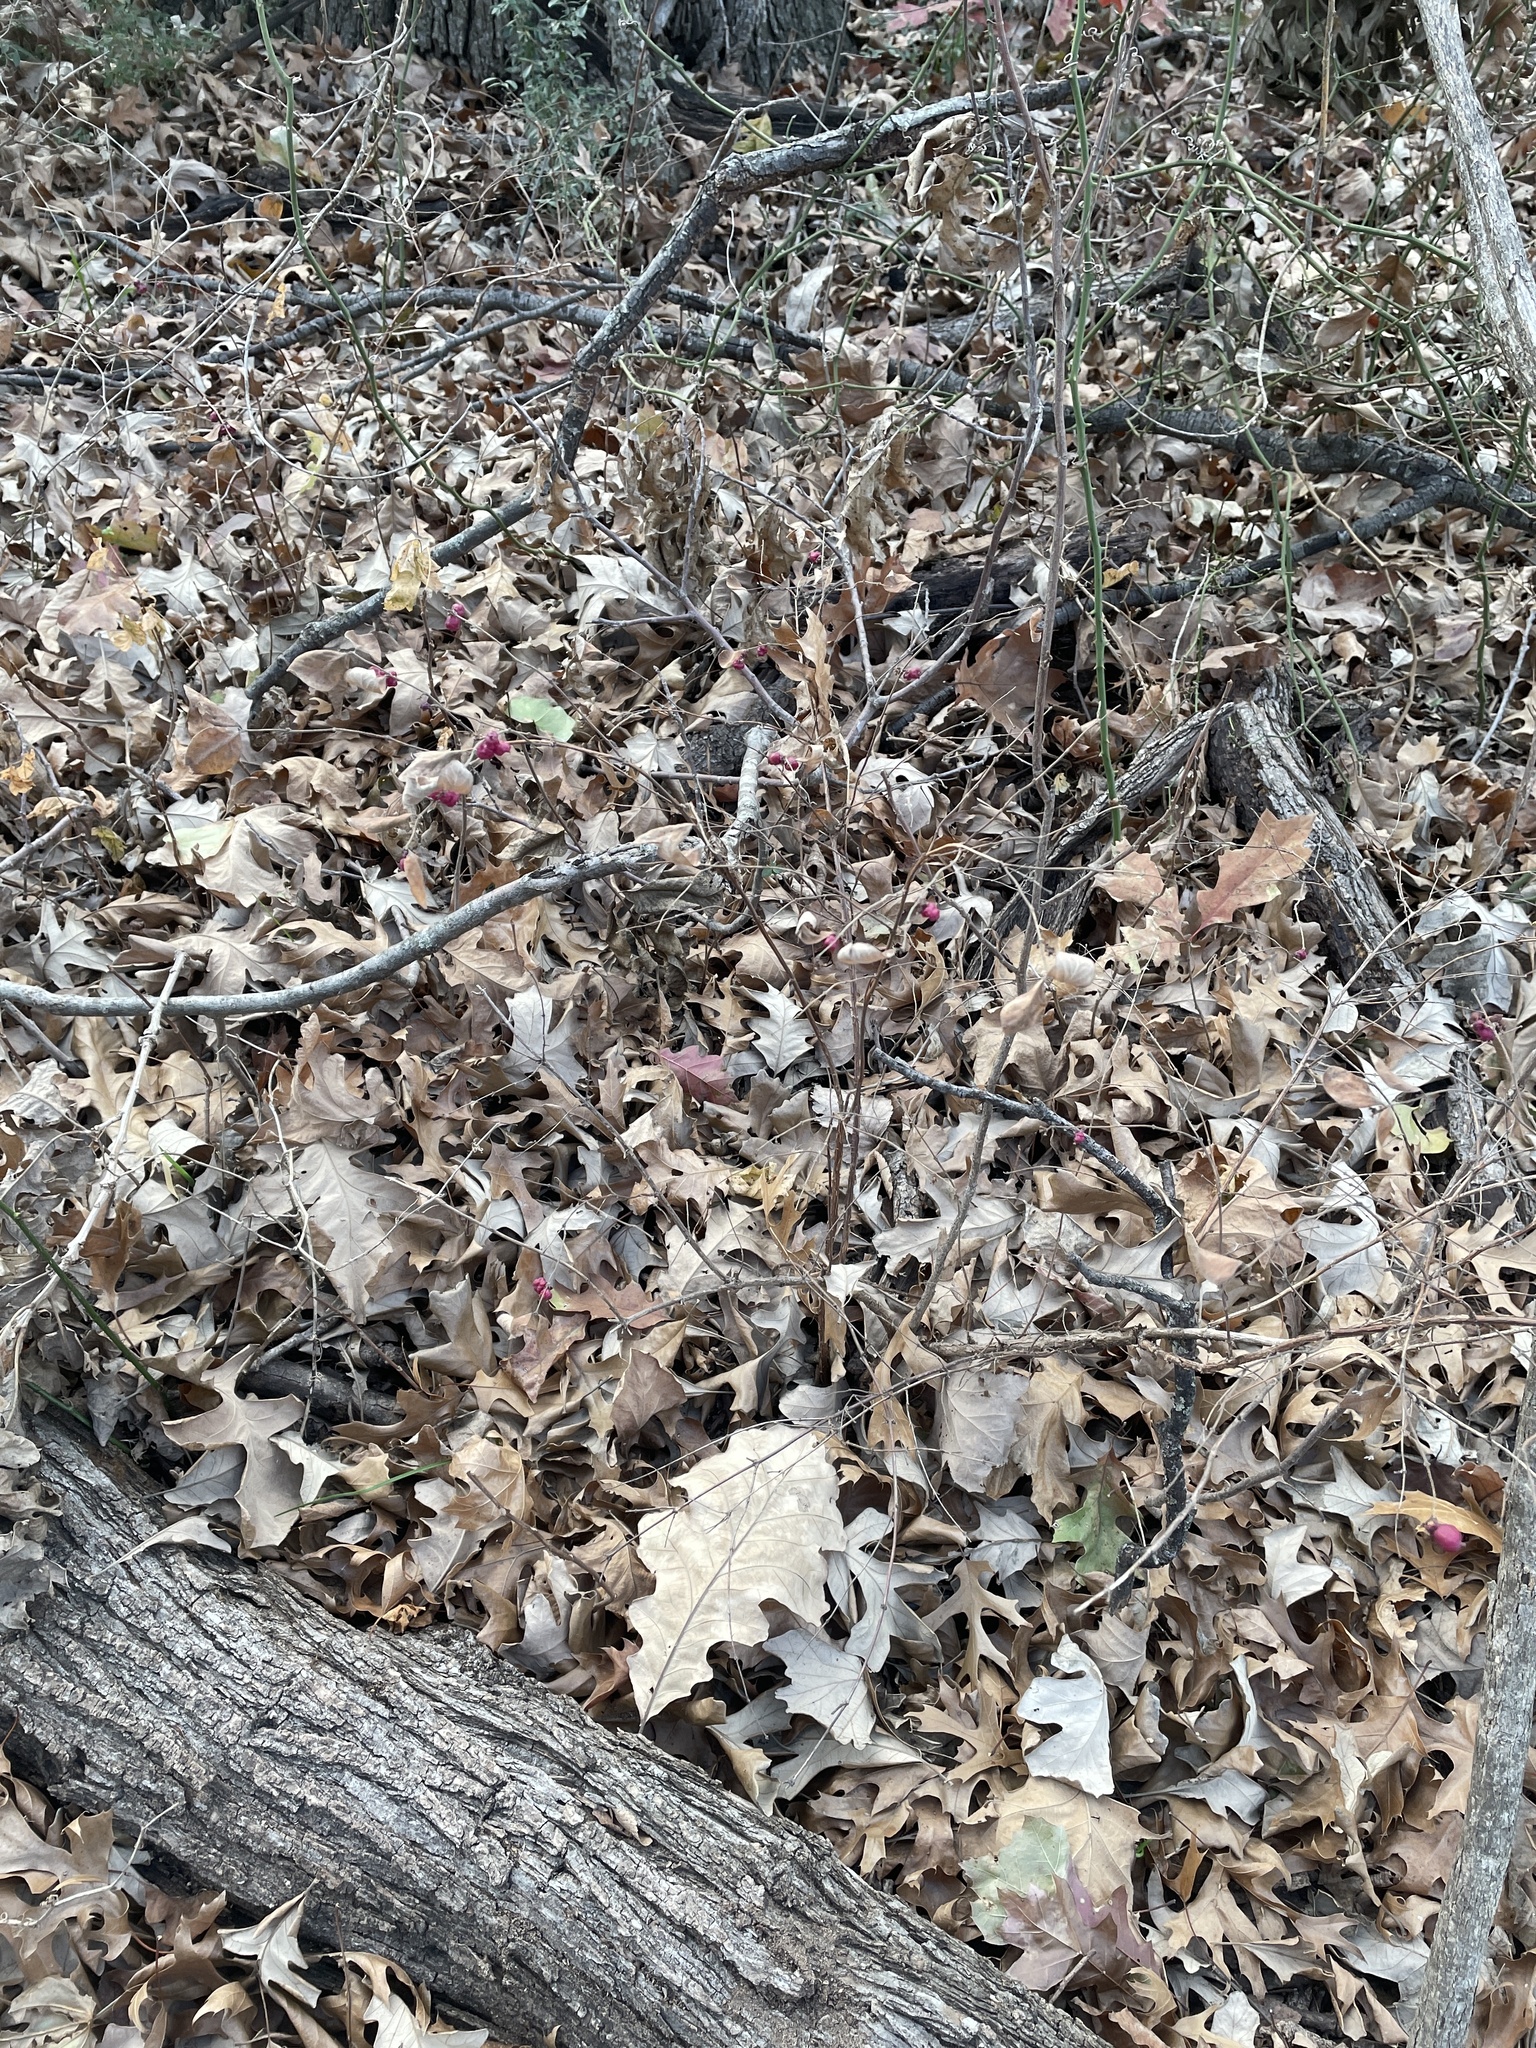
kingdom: Plantae
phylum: Tracheophyta
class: Magnoliopsida
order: Dipsacales
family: Caprifoliaceae
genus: Symphoricarpos
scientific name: Symphoricarpos orbiculatus
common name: Coralberry
